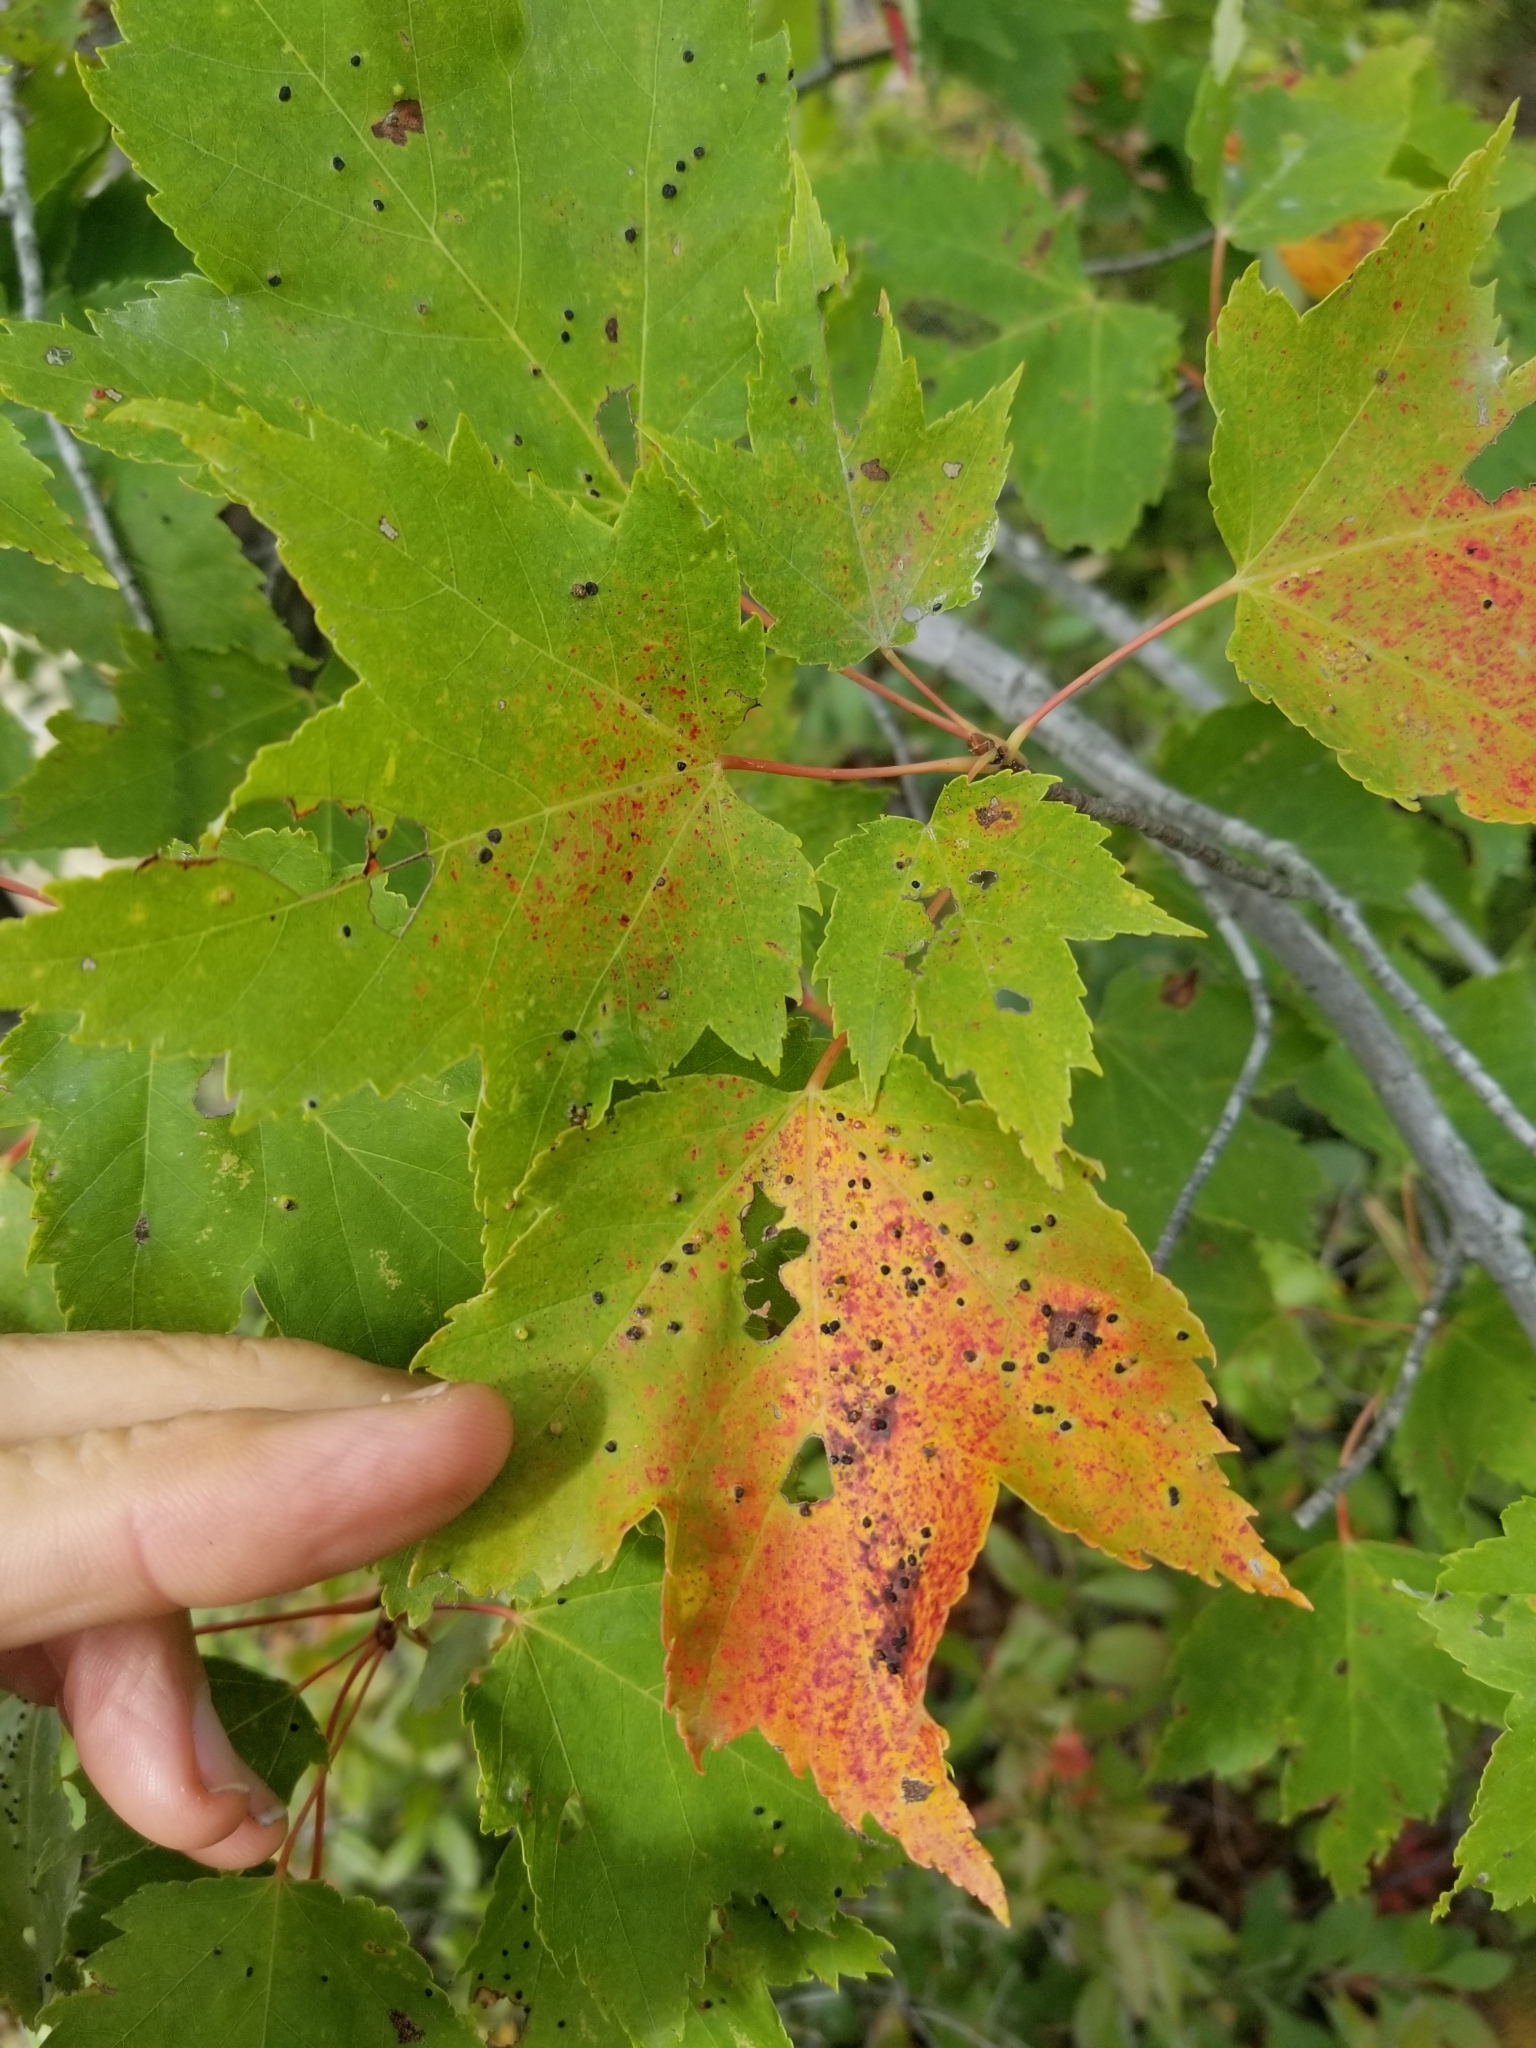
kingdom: Plantae
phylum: Tracheophyta
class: Magnoliopsida
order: Sapindales
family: Sapindaceae
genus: Acer
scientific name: Acer rubrum
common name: Red maple
